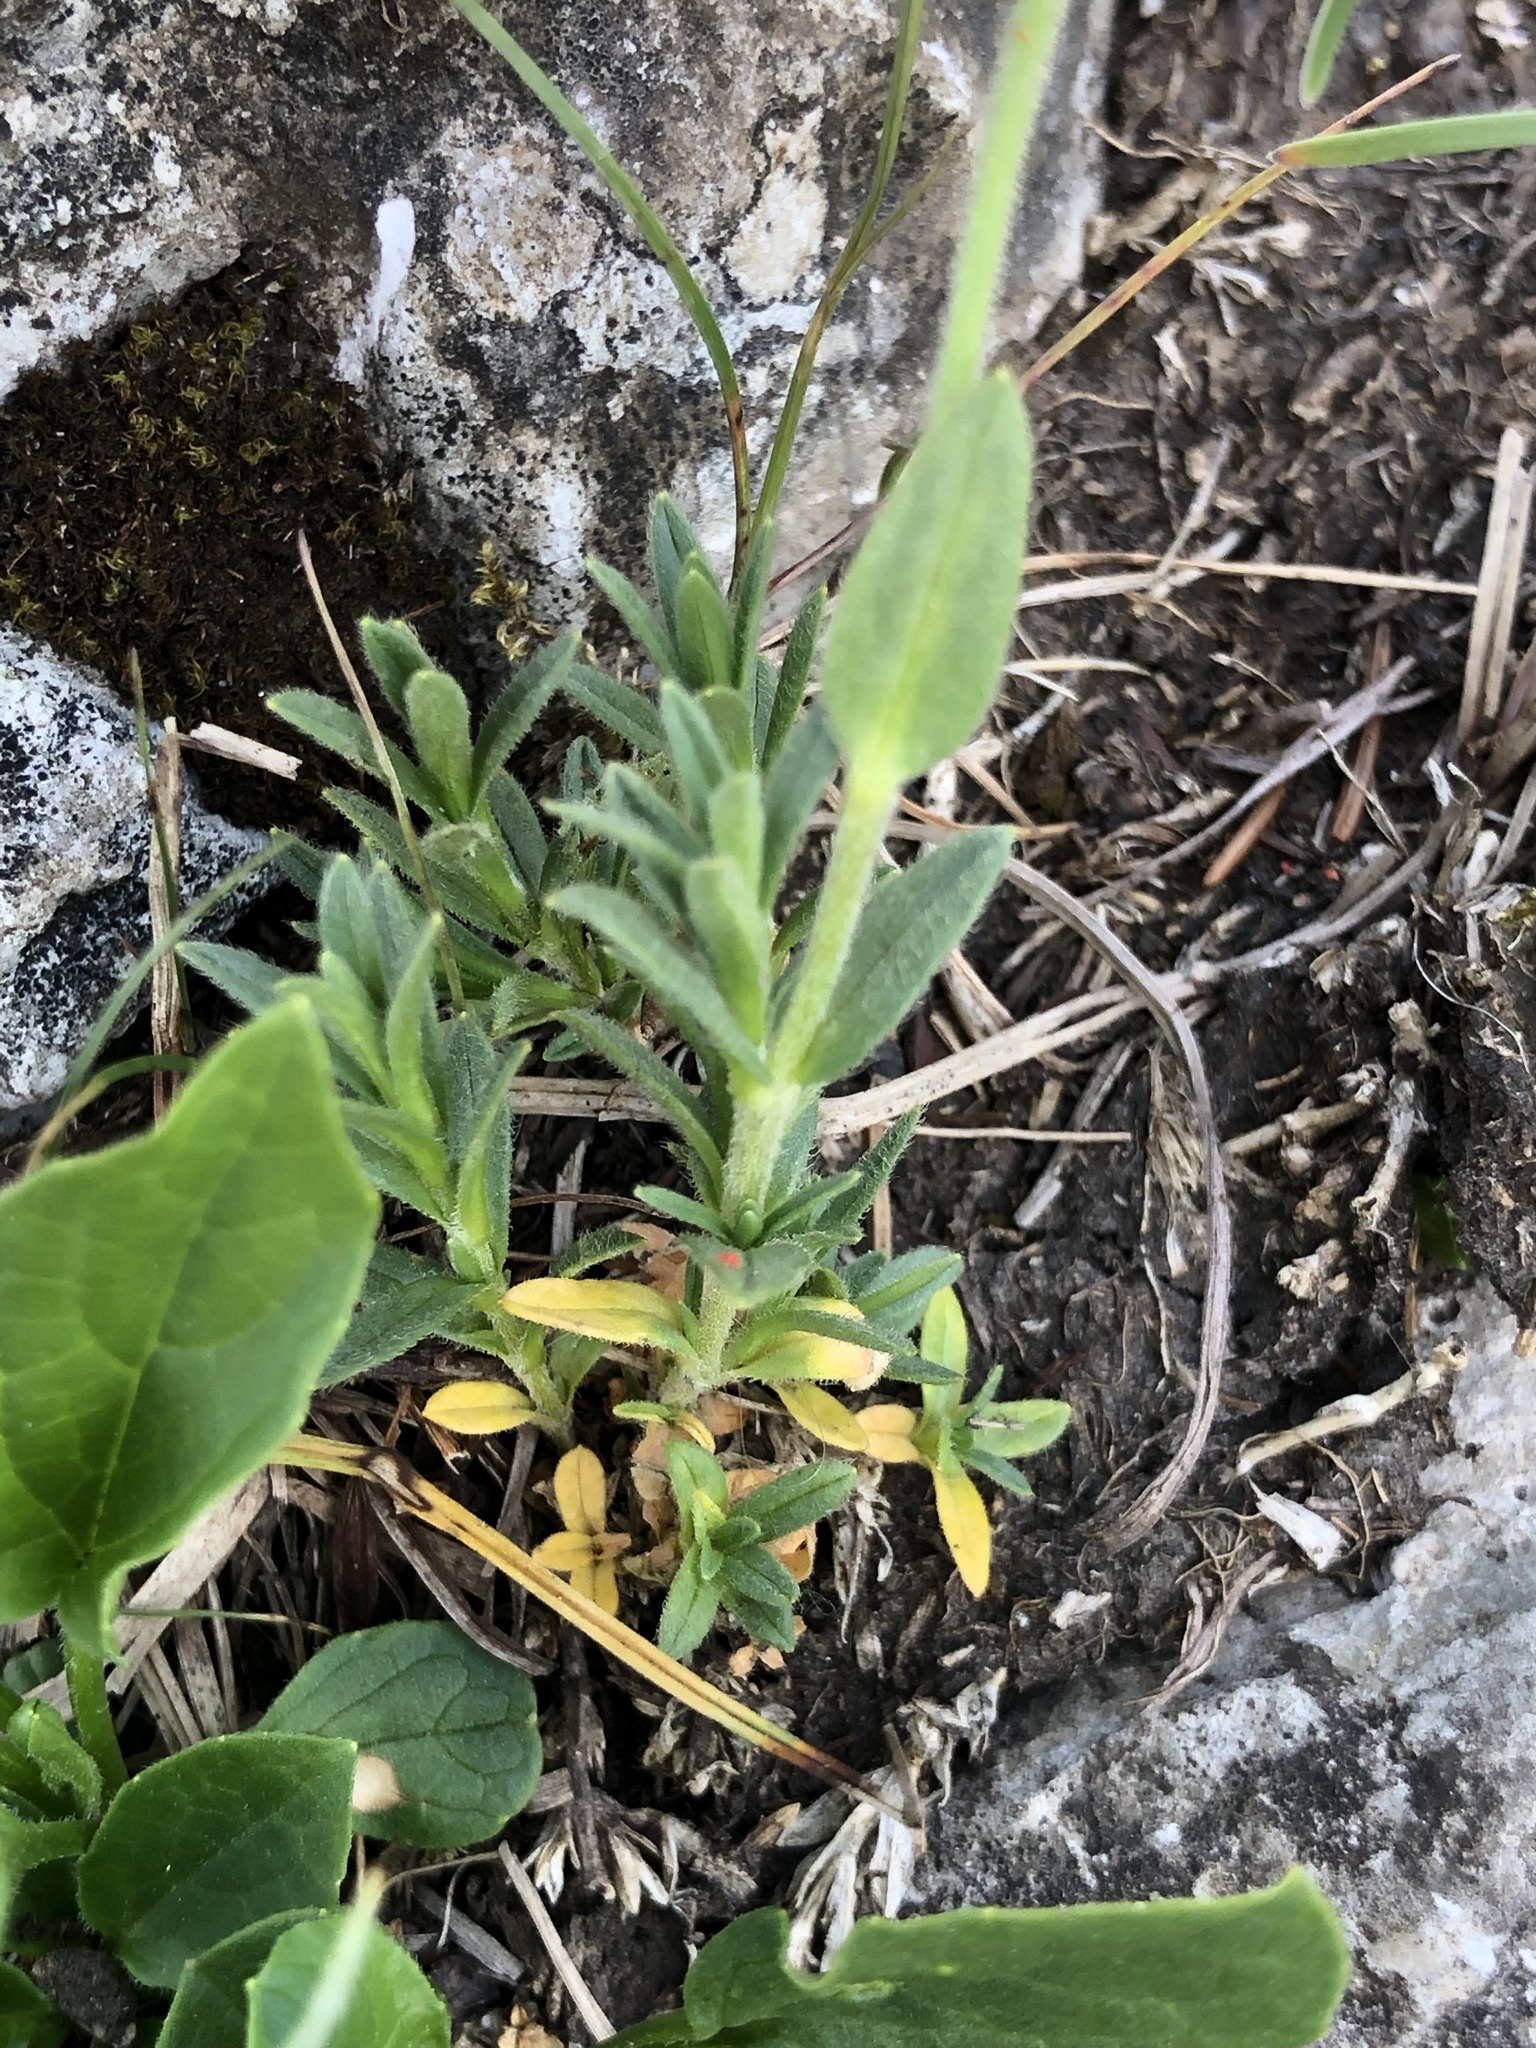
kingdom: Plantae
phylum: Tracheophyta
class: Magnoliopsida
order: Caryophyllales
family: Caryophyllaceae
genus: Cerastium
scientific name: Cerastium arvense
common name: Field mouse-ear
